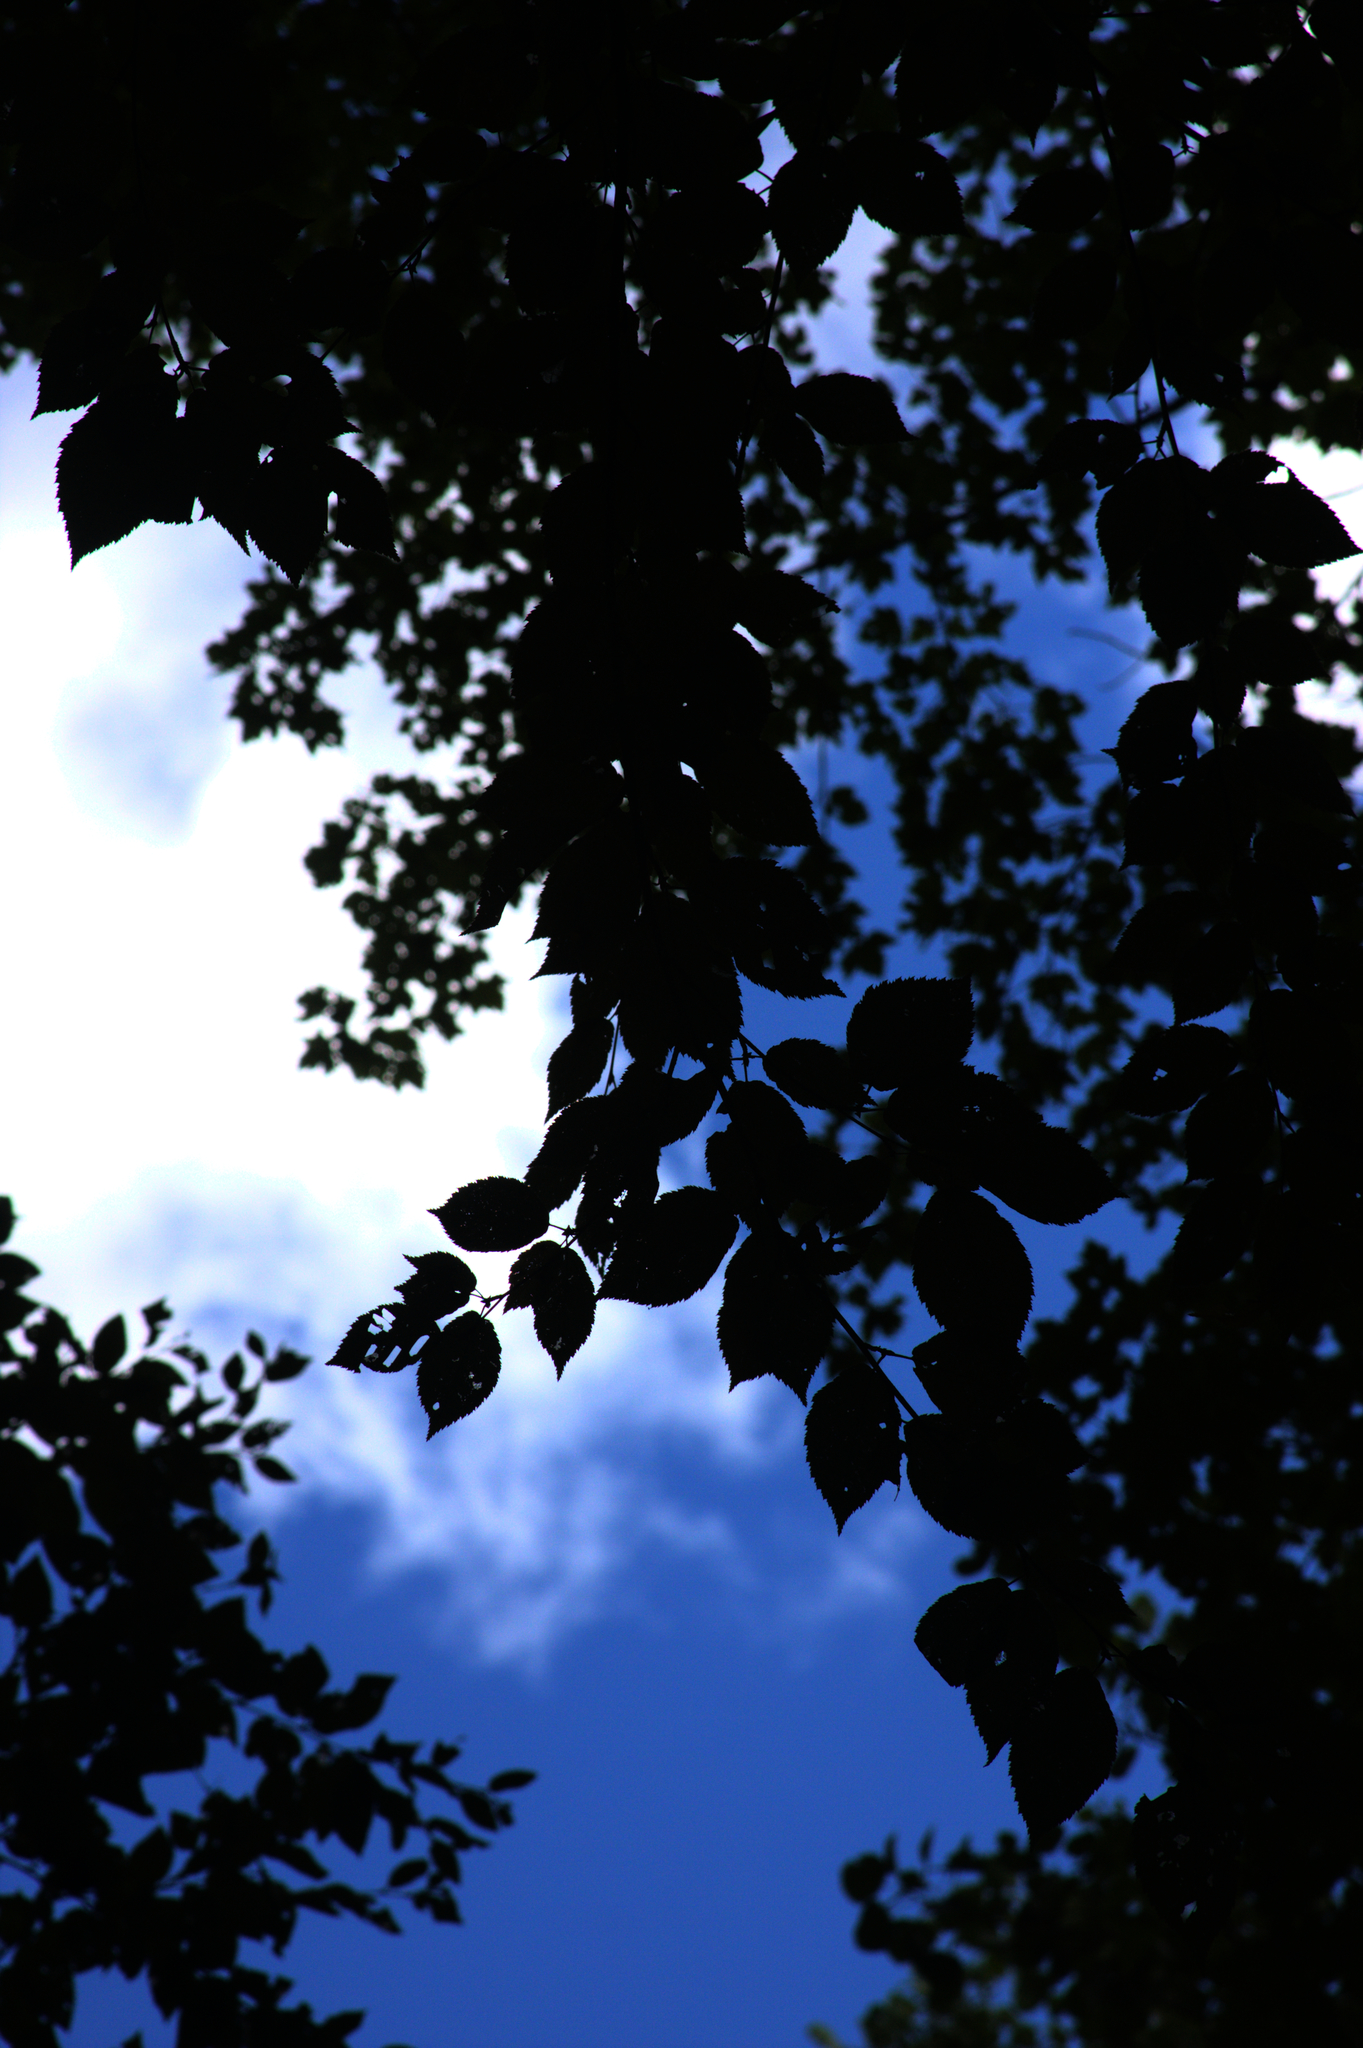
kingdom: Plantae
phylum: Tracheophyta
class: Magnoliopsida
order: Fagales
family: Betulaceae
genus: Betula
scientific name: Betula alleghaniensis
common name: Yellow birch
